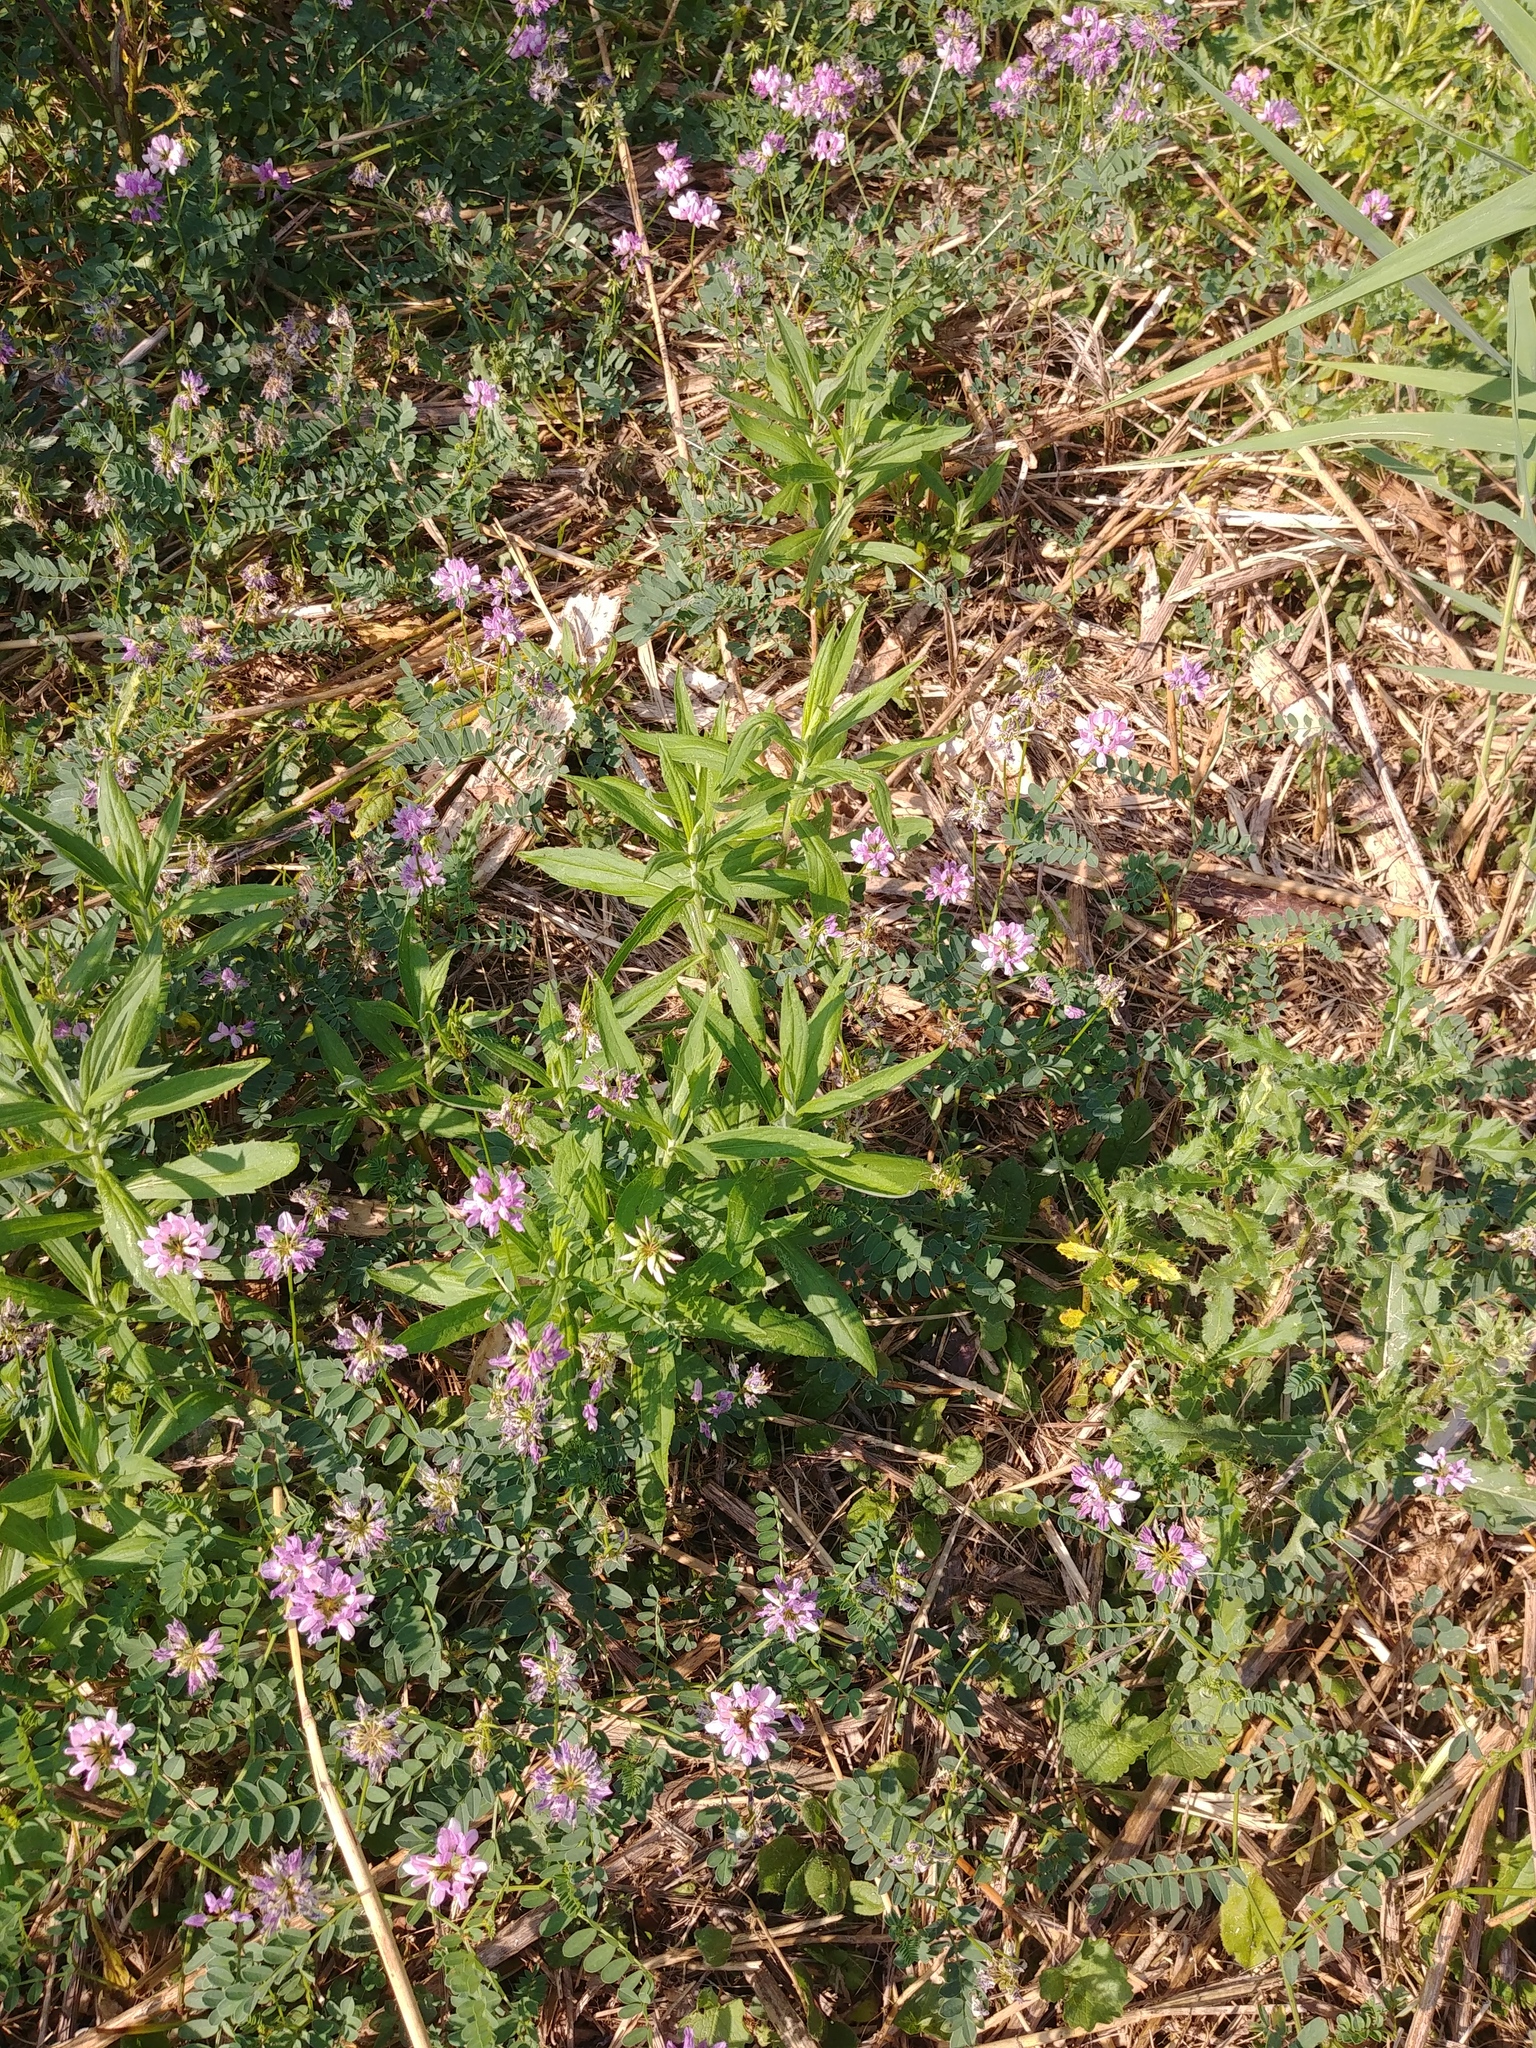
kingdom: Plantae
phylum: Tracheophyta
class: Magnoliopsida
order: Fabales
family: Fabaceae
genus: Coronilla
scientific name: Coronilla varia
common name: Crownvetch
